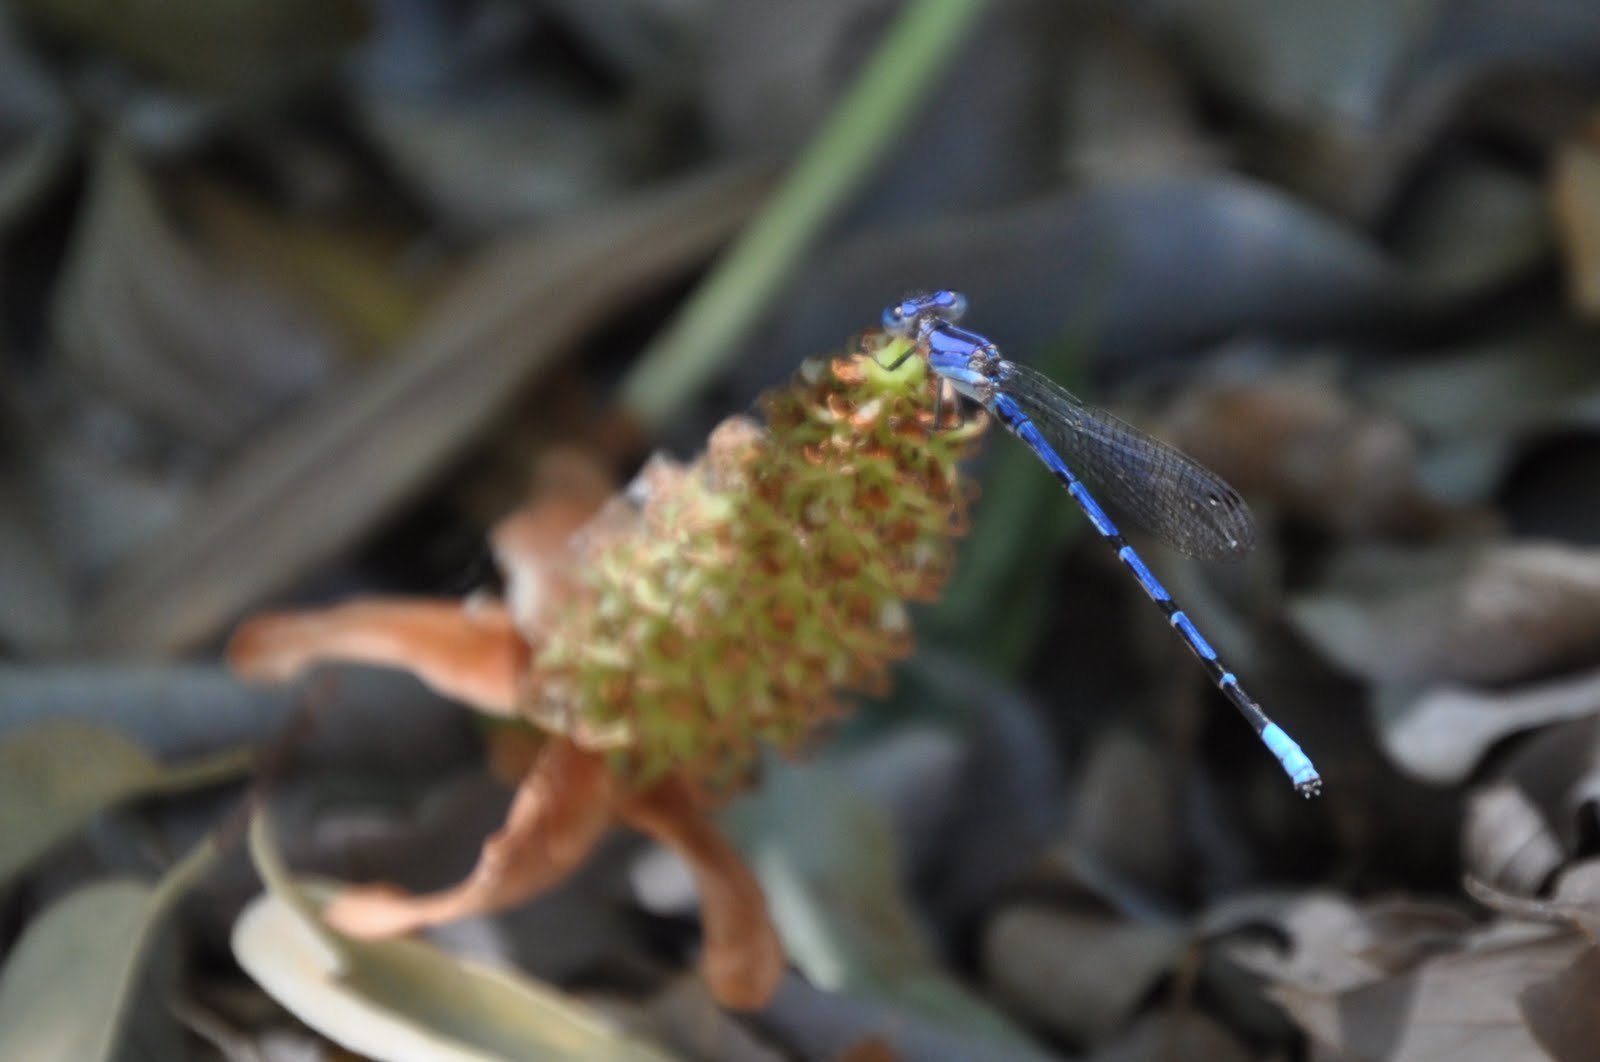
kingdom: Animalia
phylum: Arthropoda
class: Insecta
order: Odonata
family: Coenagrionidae
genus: Argia
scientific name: Argia extranea
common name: Spine-tipped dancer
